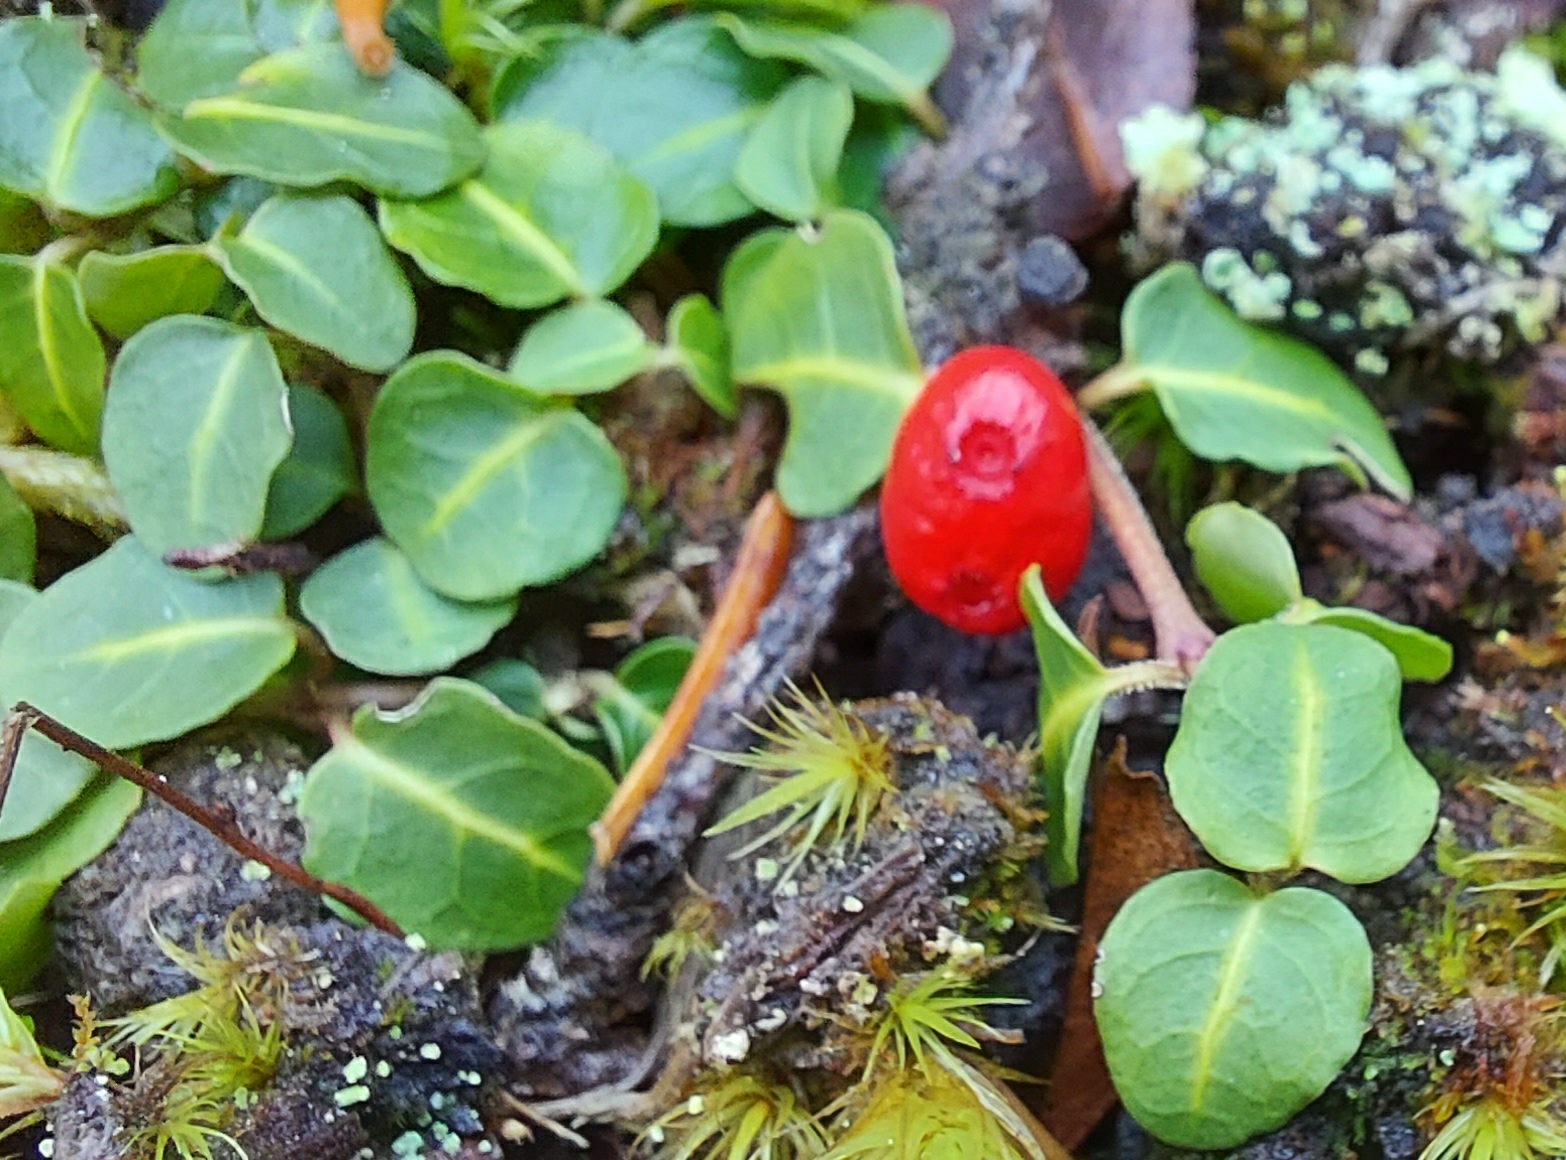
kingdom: Plantae
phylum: Tracheophyta
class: Magnoliopsida
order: Gentianales
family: Rubiaceae
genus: Mitchella
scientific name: Mitchella repens
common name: Partridge-berry
